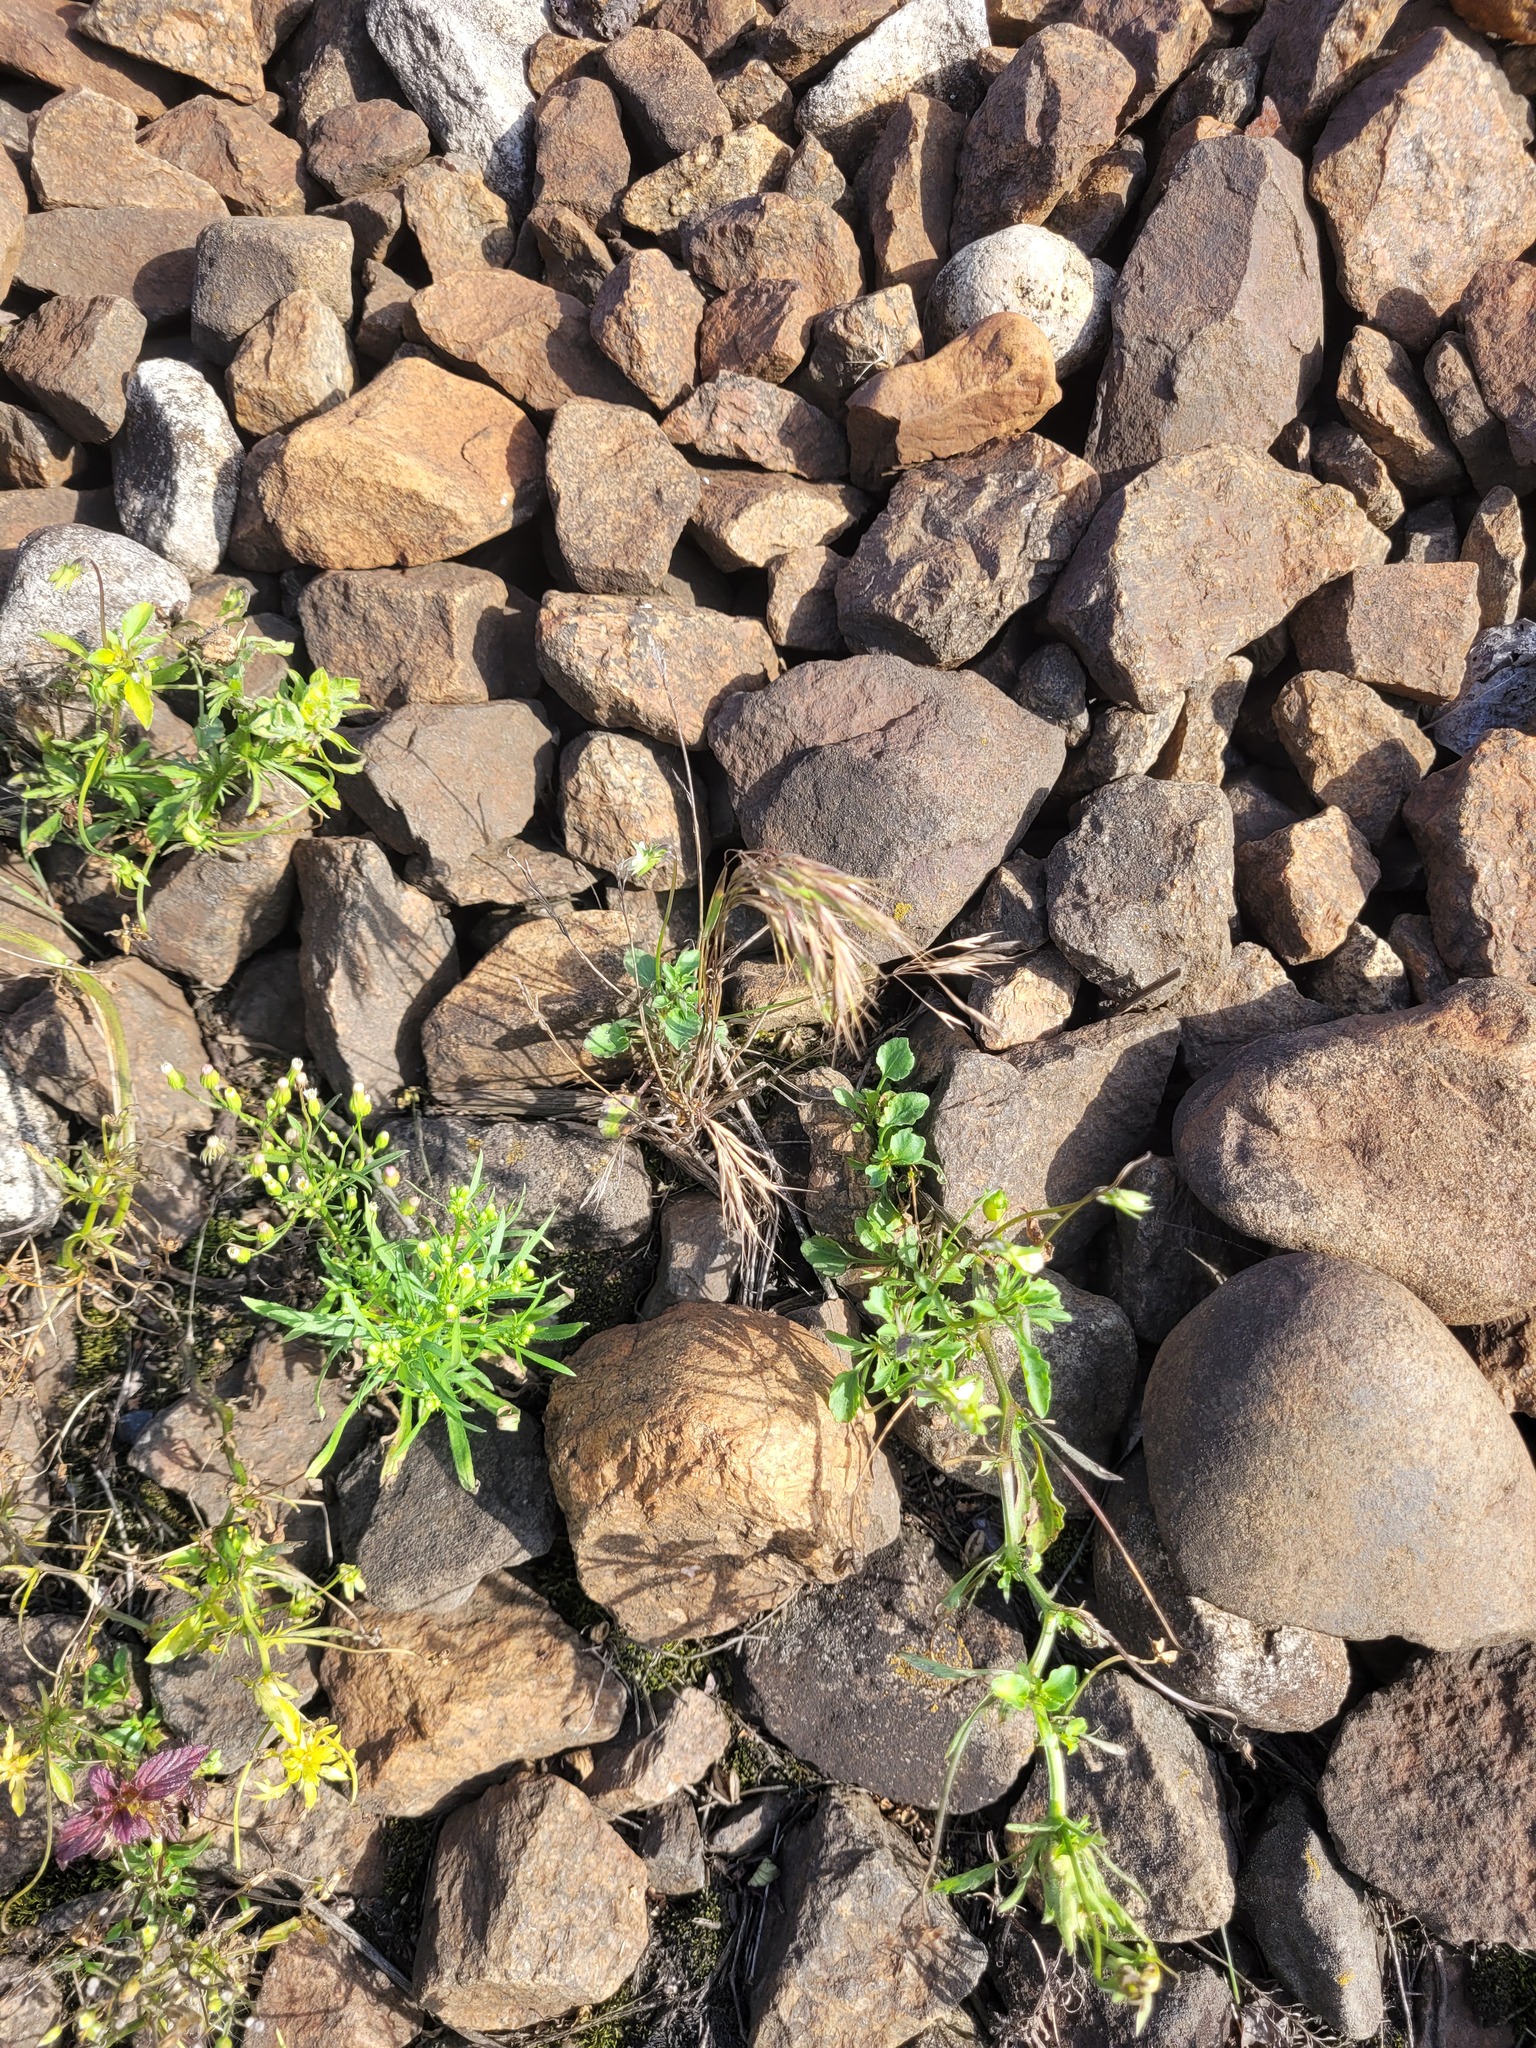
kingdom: Plantae
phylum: Tracheophyta
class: Liliopsida
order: Poales
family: Poaceae
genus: Bromus
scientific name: Bromus tectorum
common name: Cheatgrass
